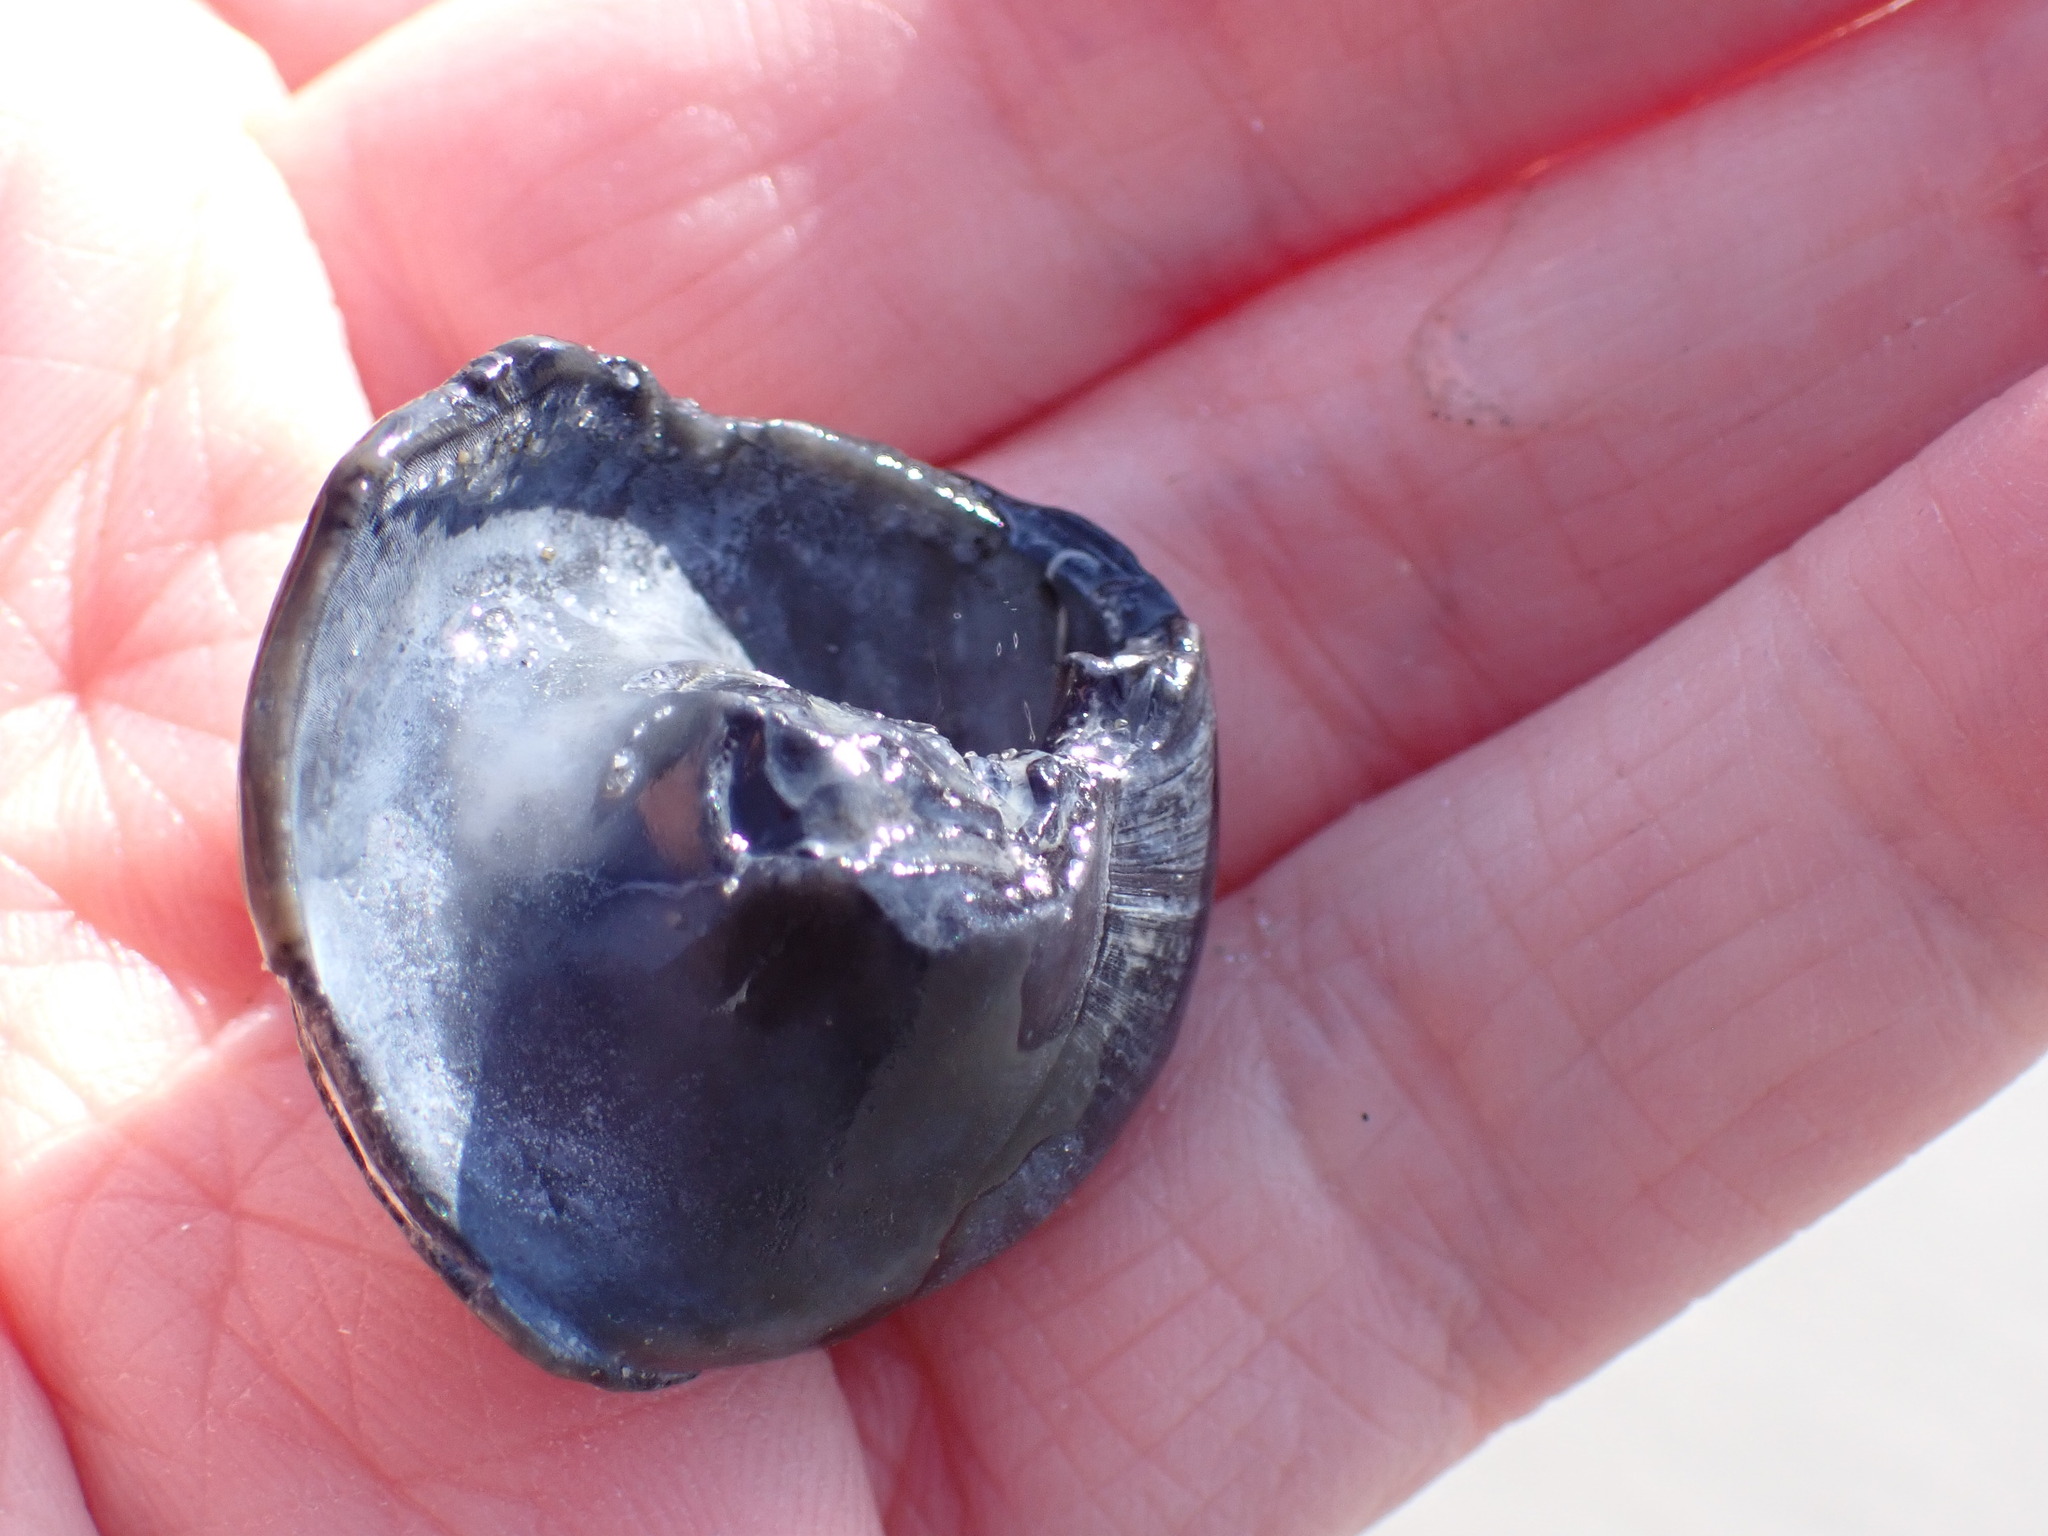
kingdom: Animalia
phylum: Mollusca
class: Gastropoda
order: Littorinimorpha
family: Naticidae
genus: Neverita
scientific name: Neverita duplicata
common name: Lobed moonsnail
